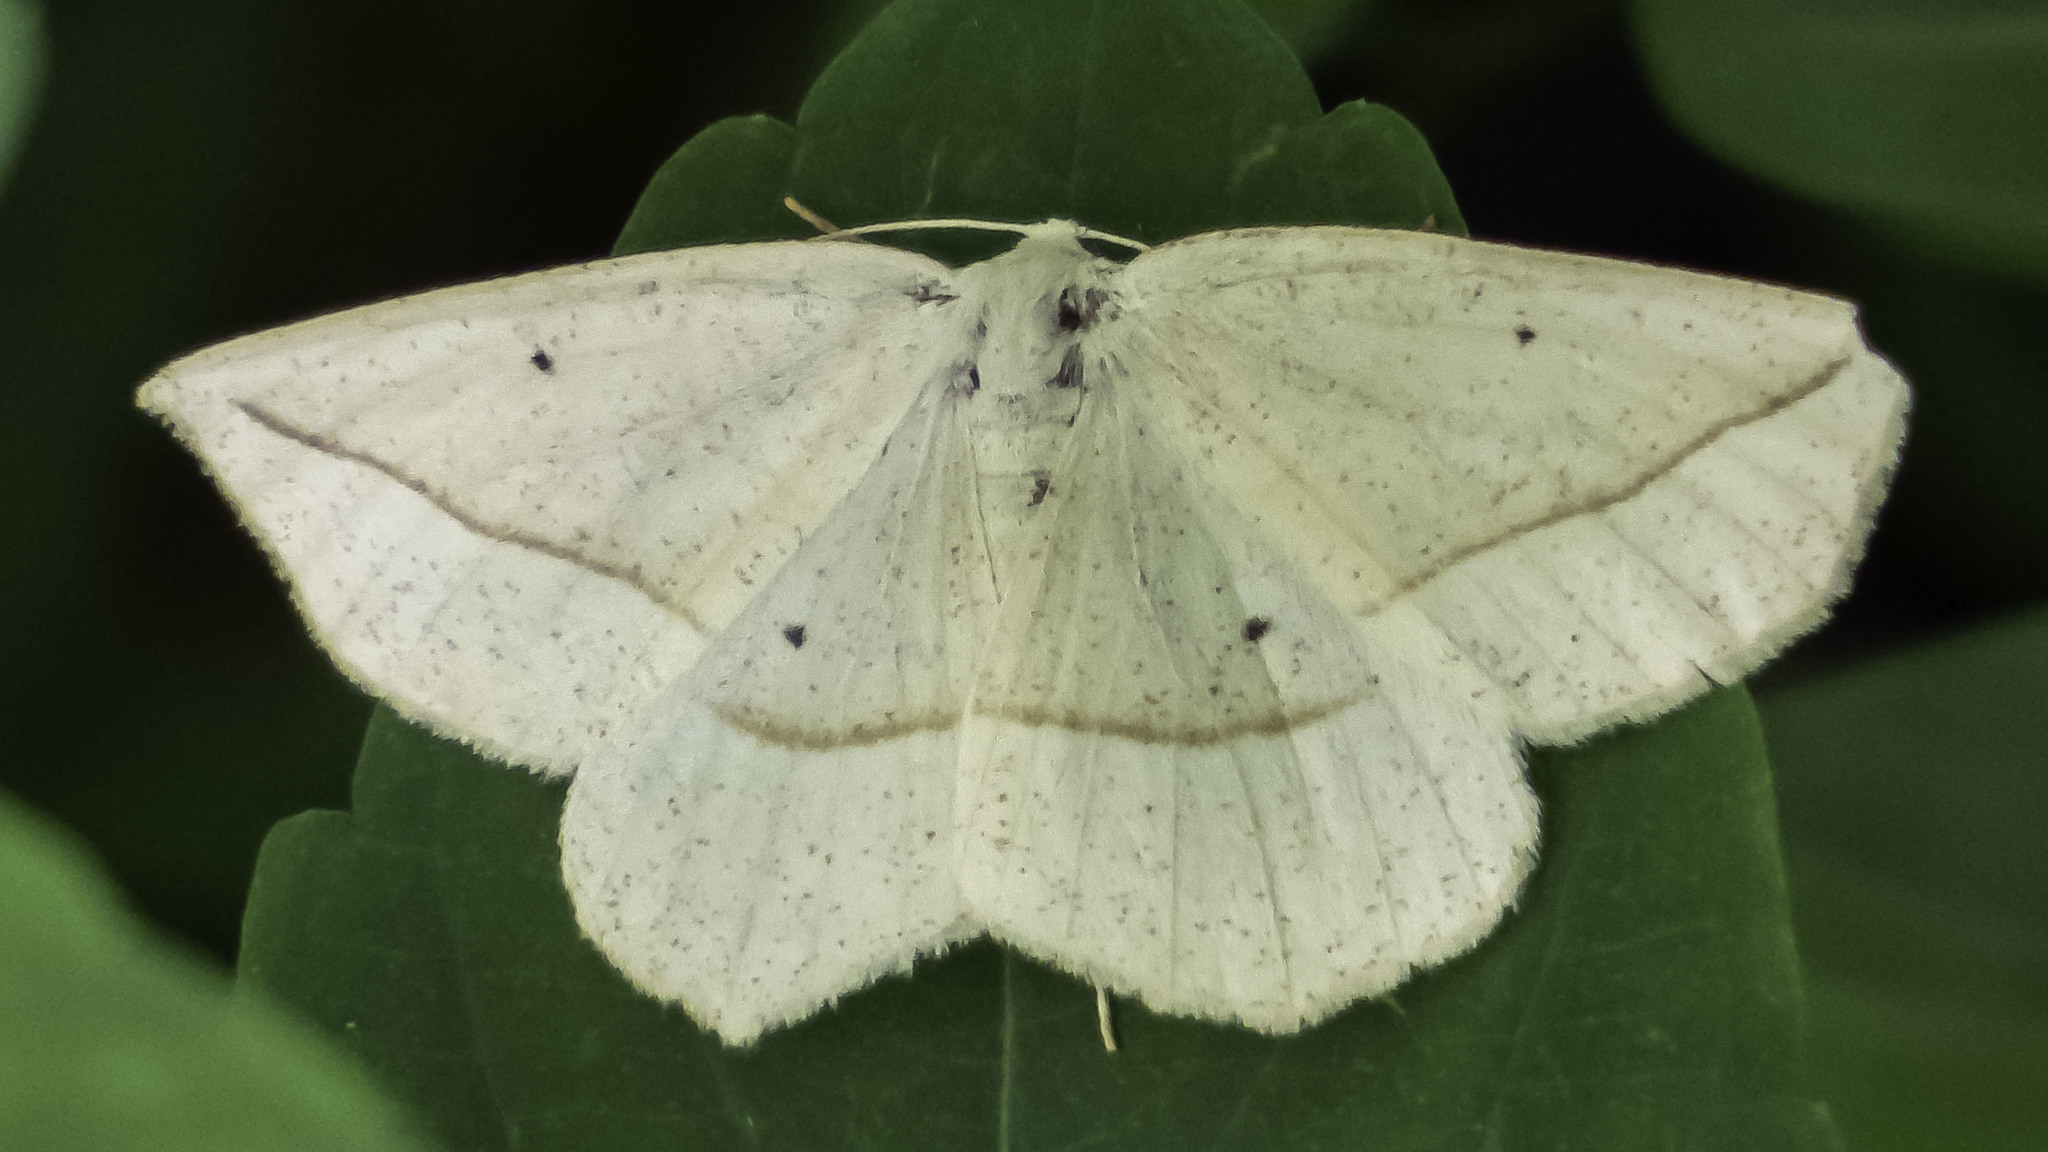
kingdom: Animalia
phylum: Arthropoda
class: Insecta
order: Lepidoptera
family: Geometridae
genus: Eusarca
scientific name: Eusarca confusaria
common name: Confused eusarca
